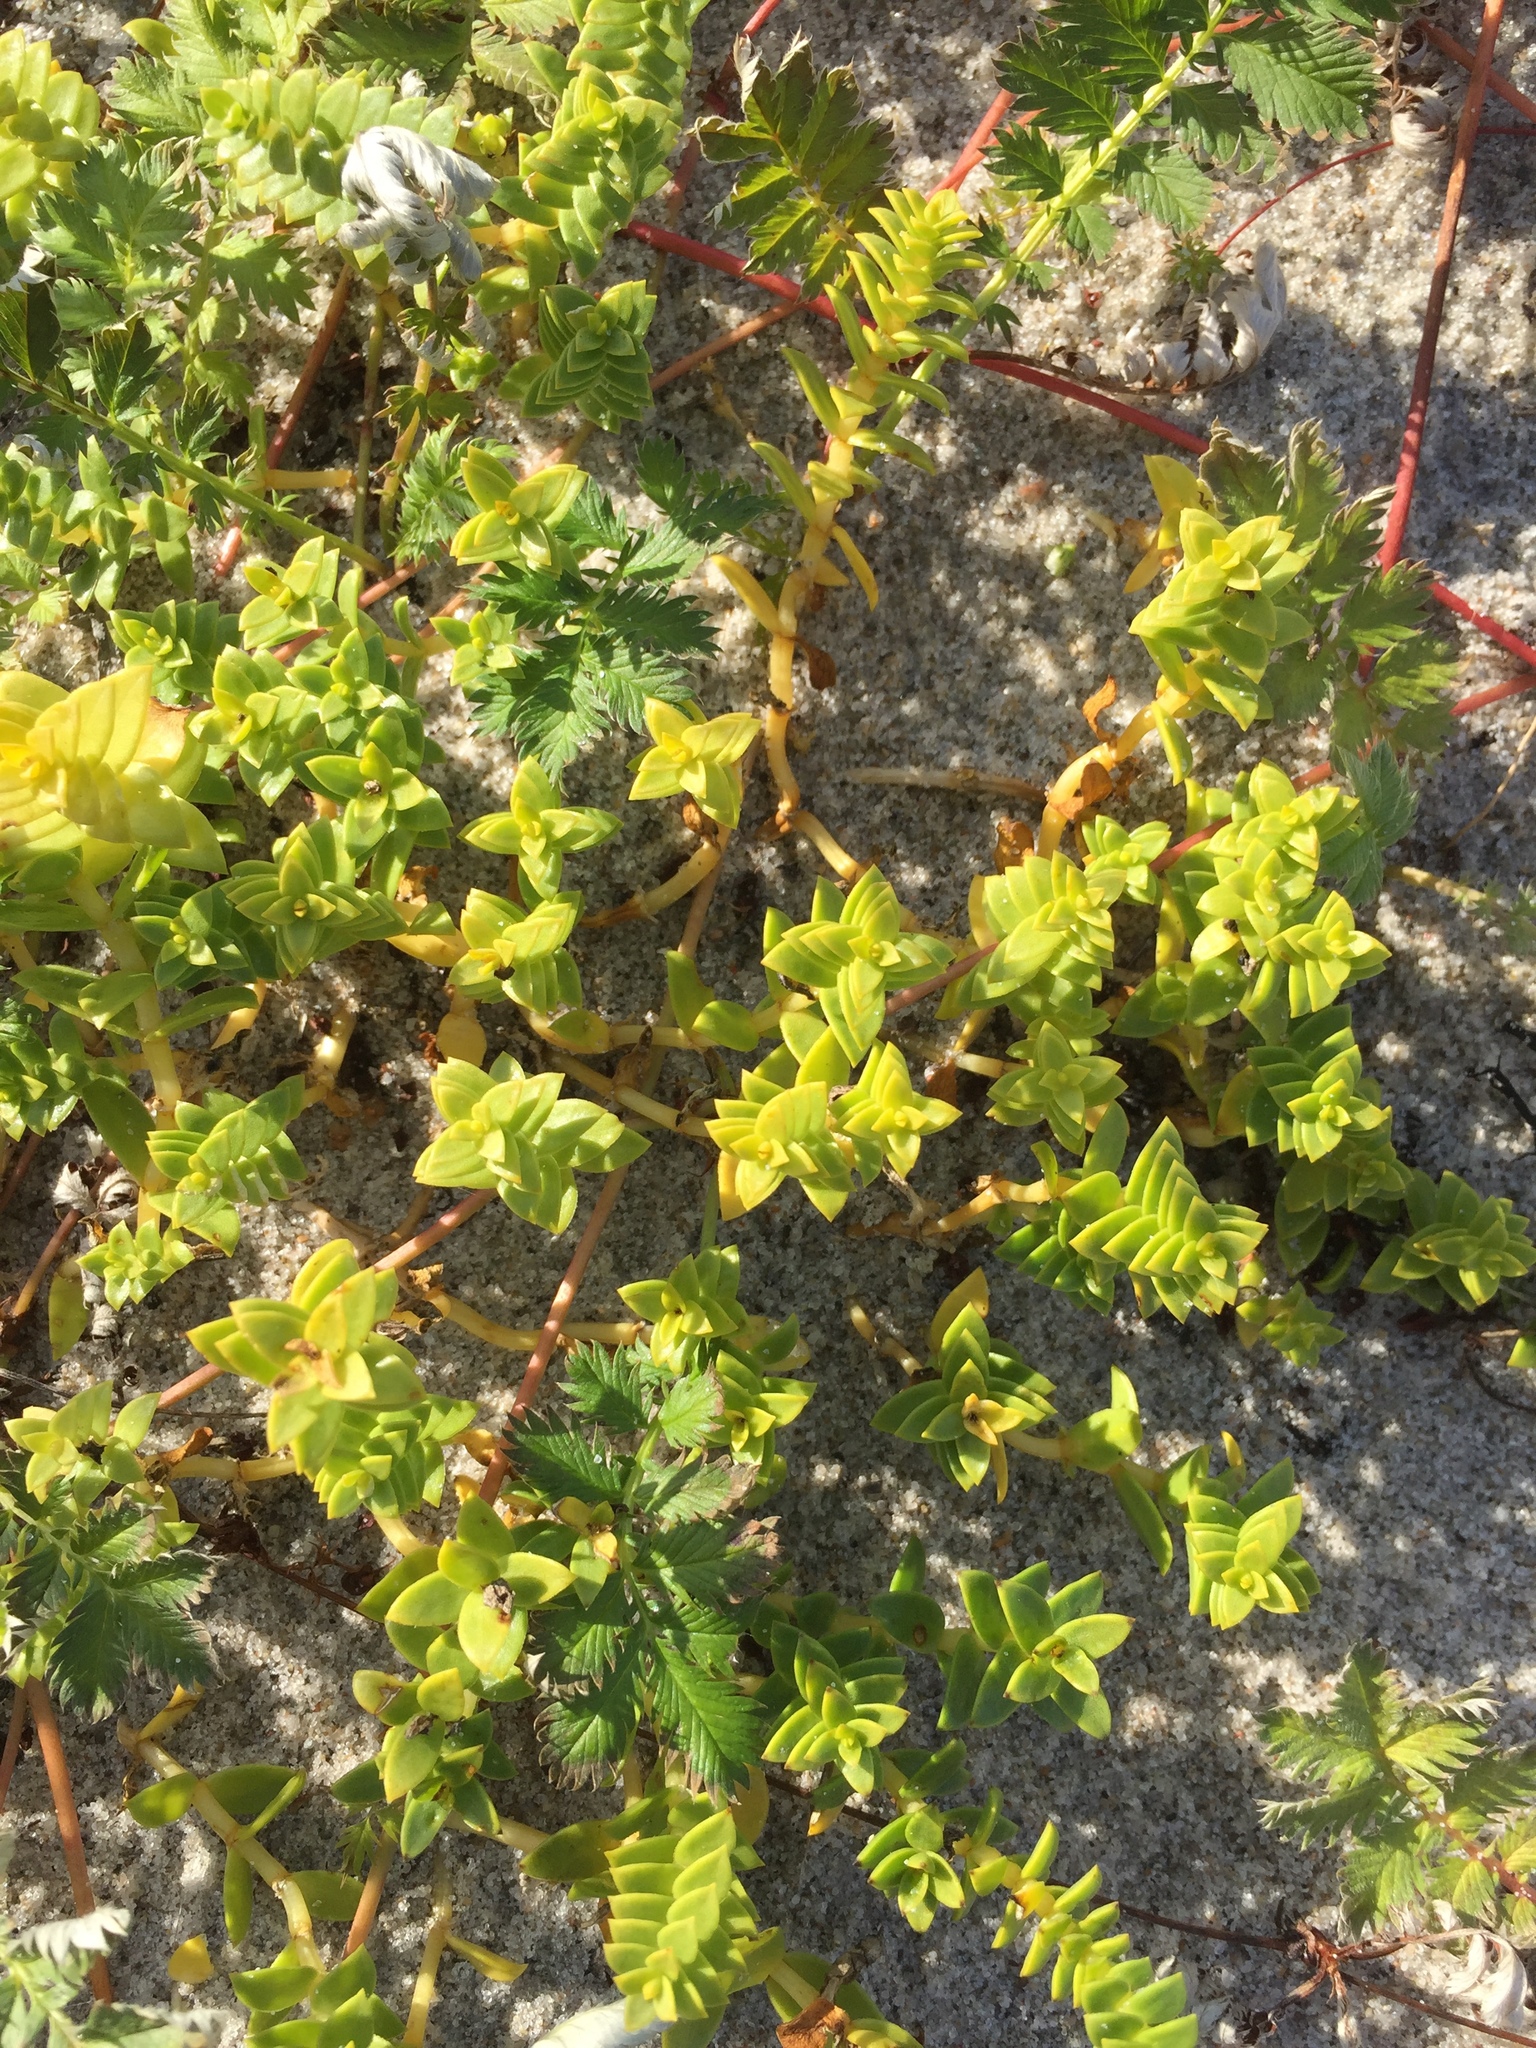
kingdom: Plantae
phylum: Tracheophyta
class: Magnoliopsida
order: Caryophyllales
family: Caryophyllaceae
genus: Honckenya
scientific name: Honckenya peploides
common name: Sea sandwort
